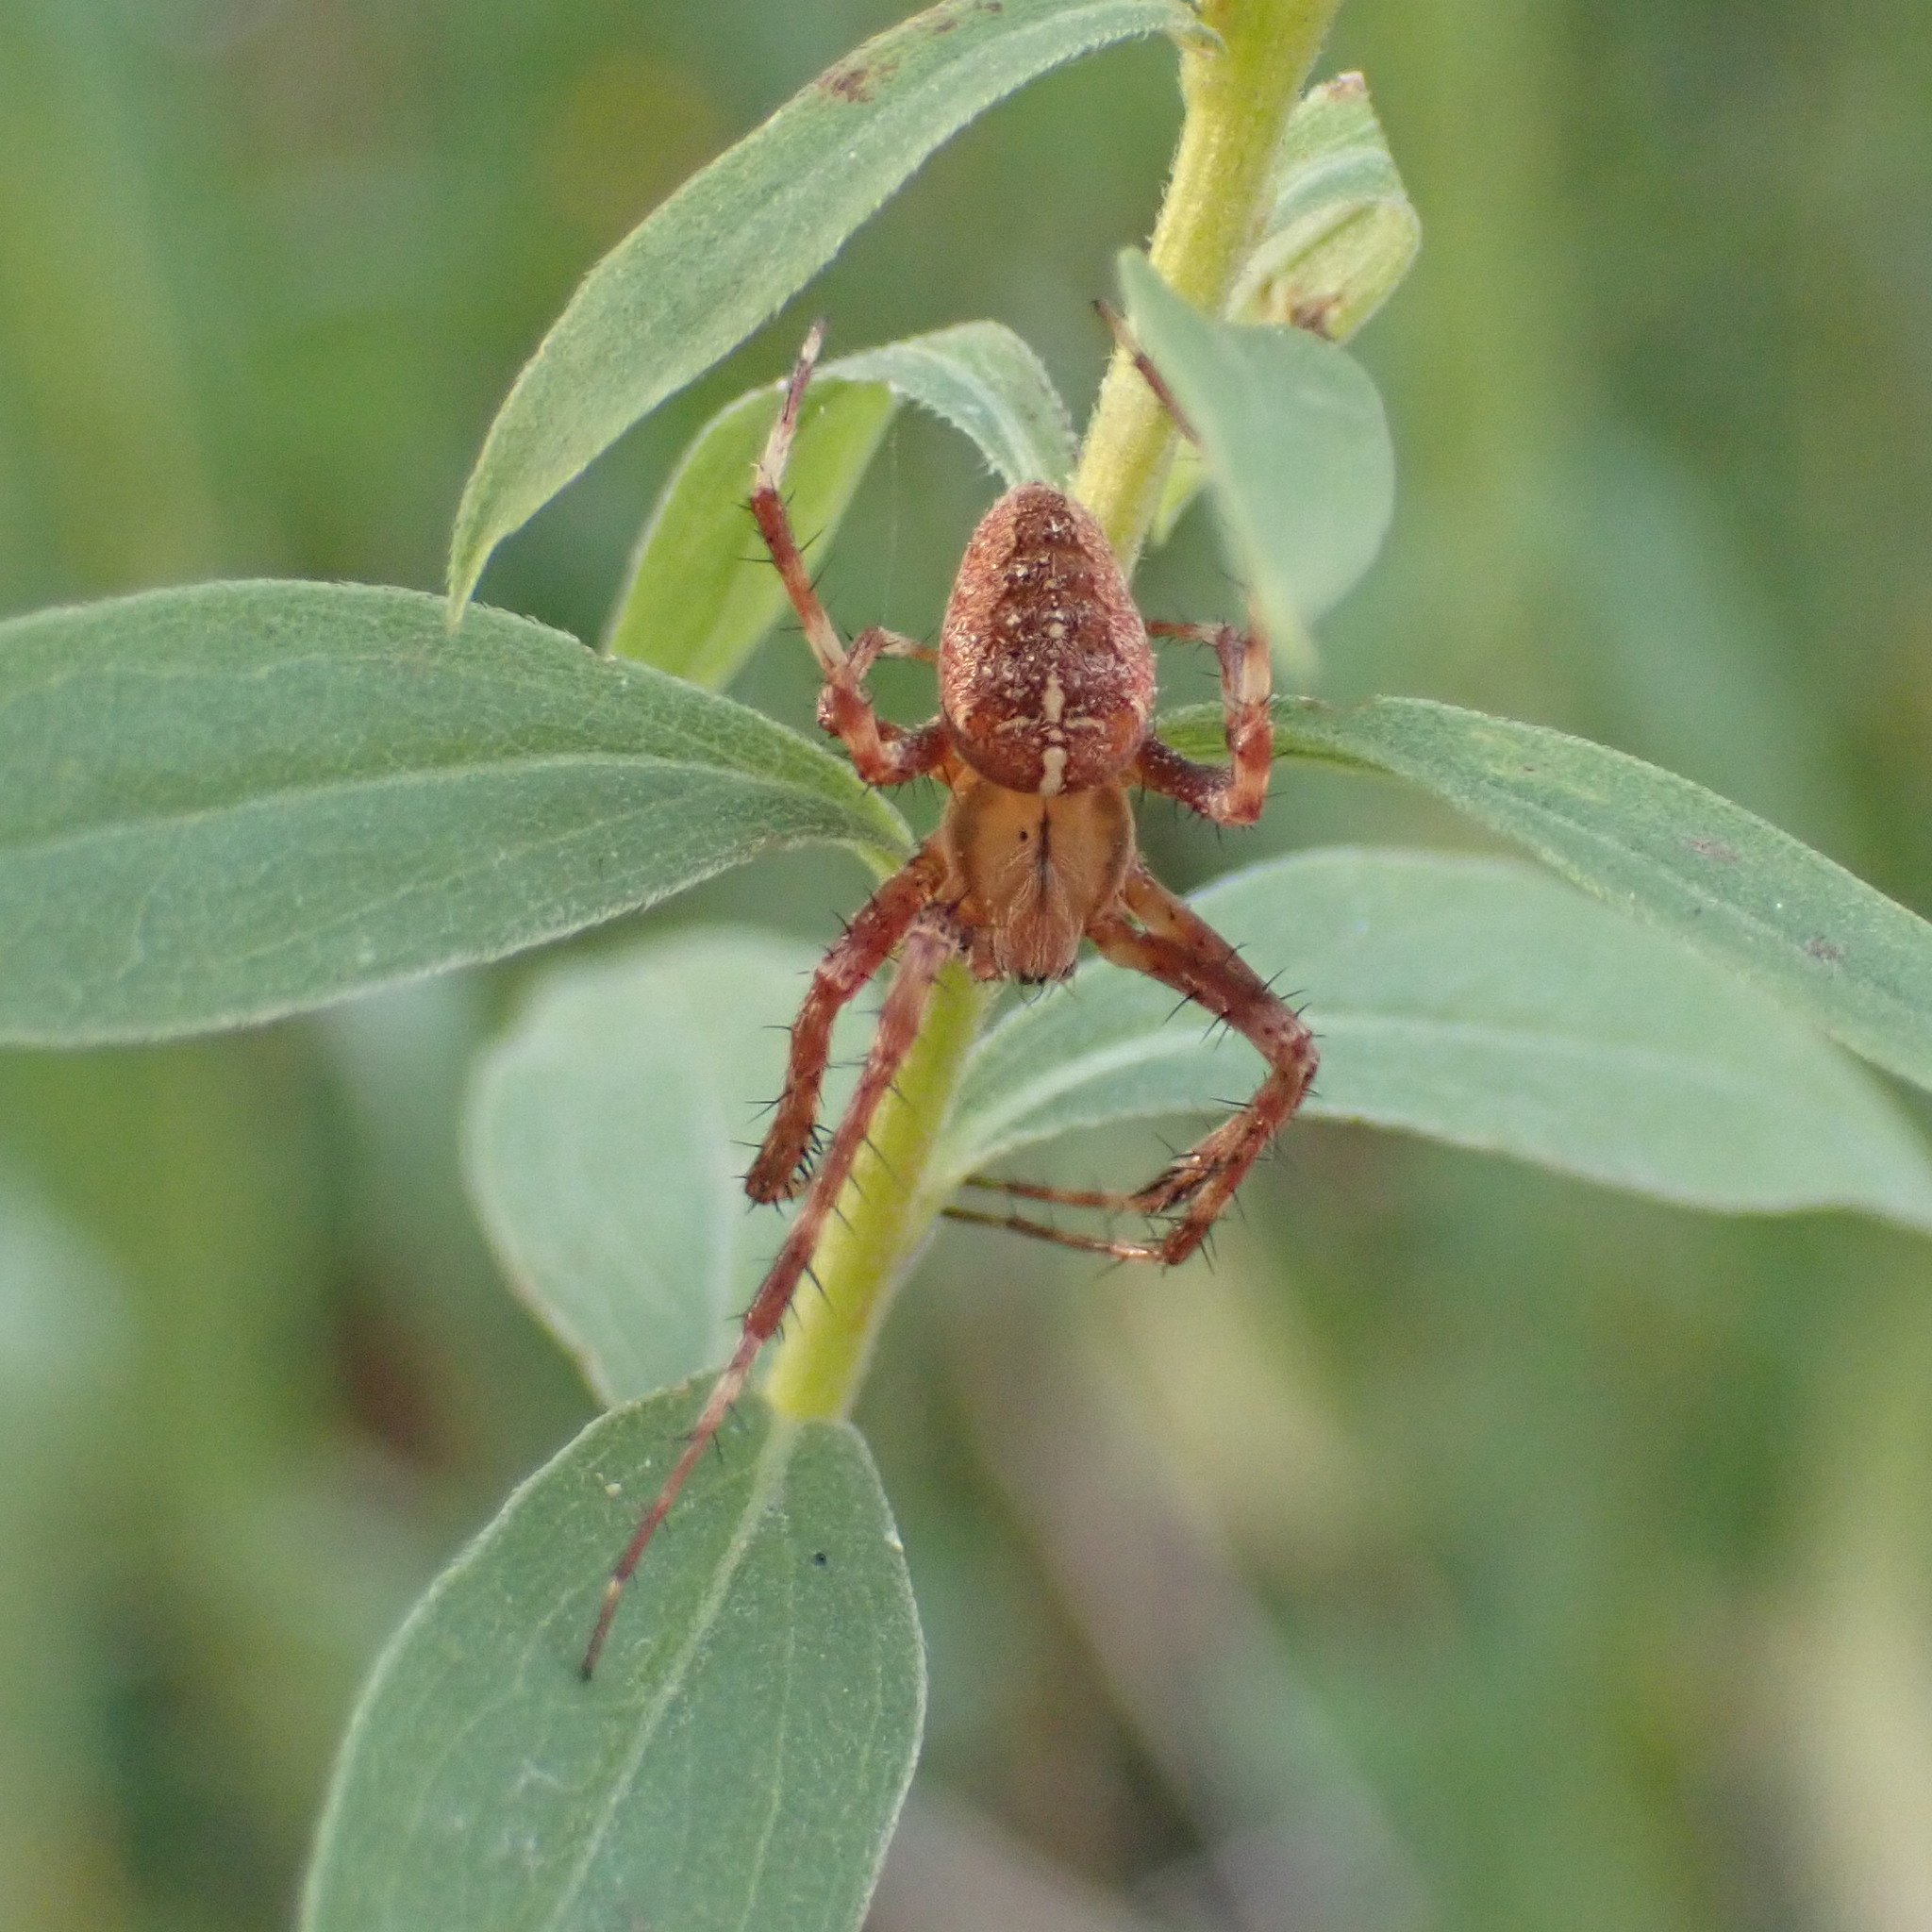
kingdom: Animalia
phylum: Arthropoda
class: Arachnida
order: Araneae
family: Araneidae
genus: Araneus
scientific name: Araneus diadematus
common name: Cross orbweaver
